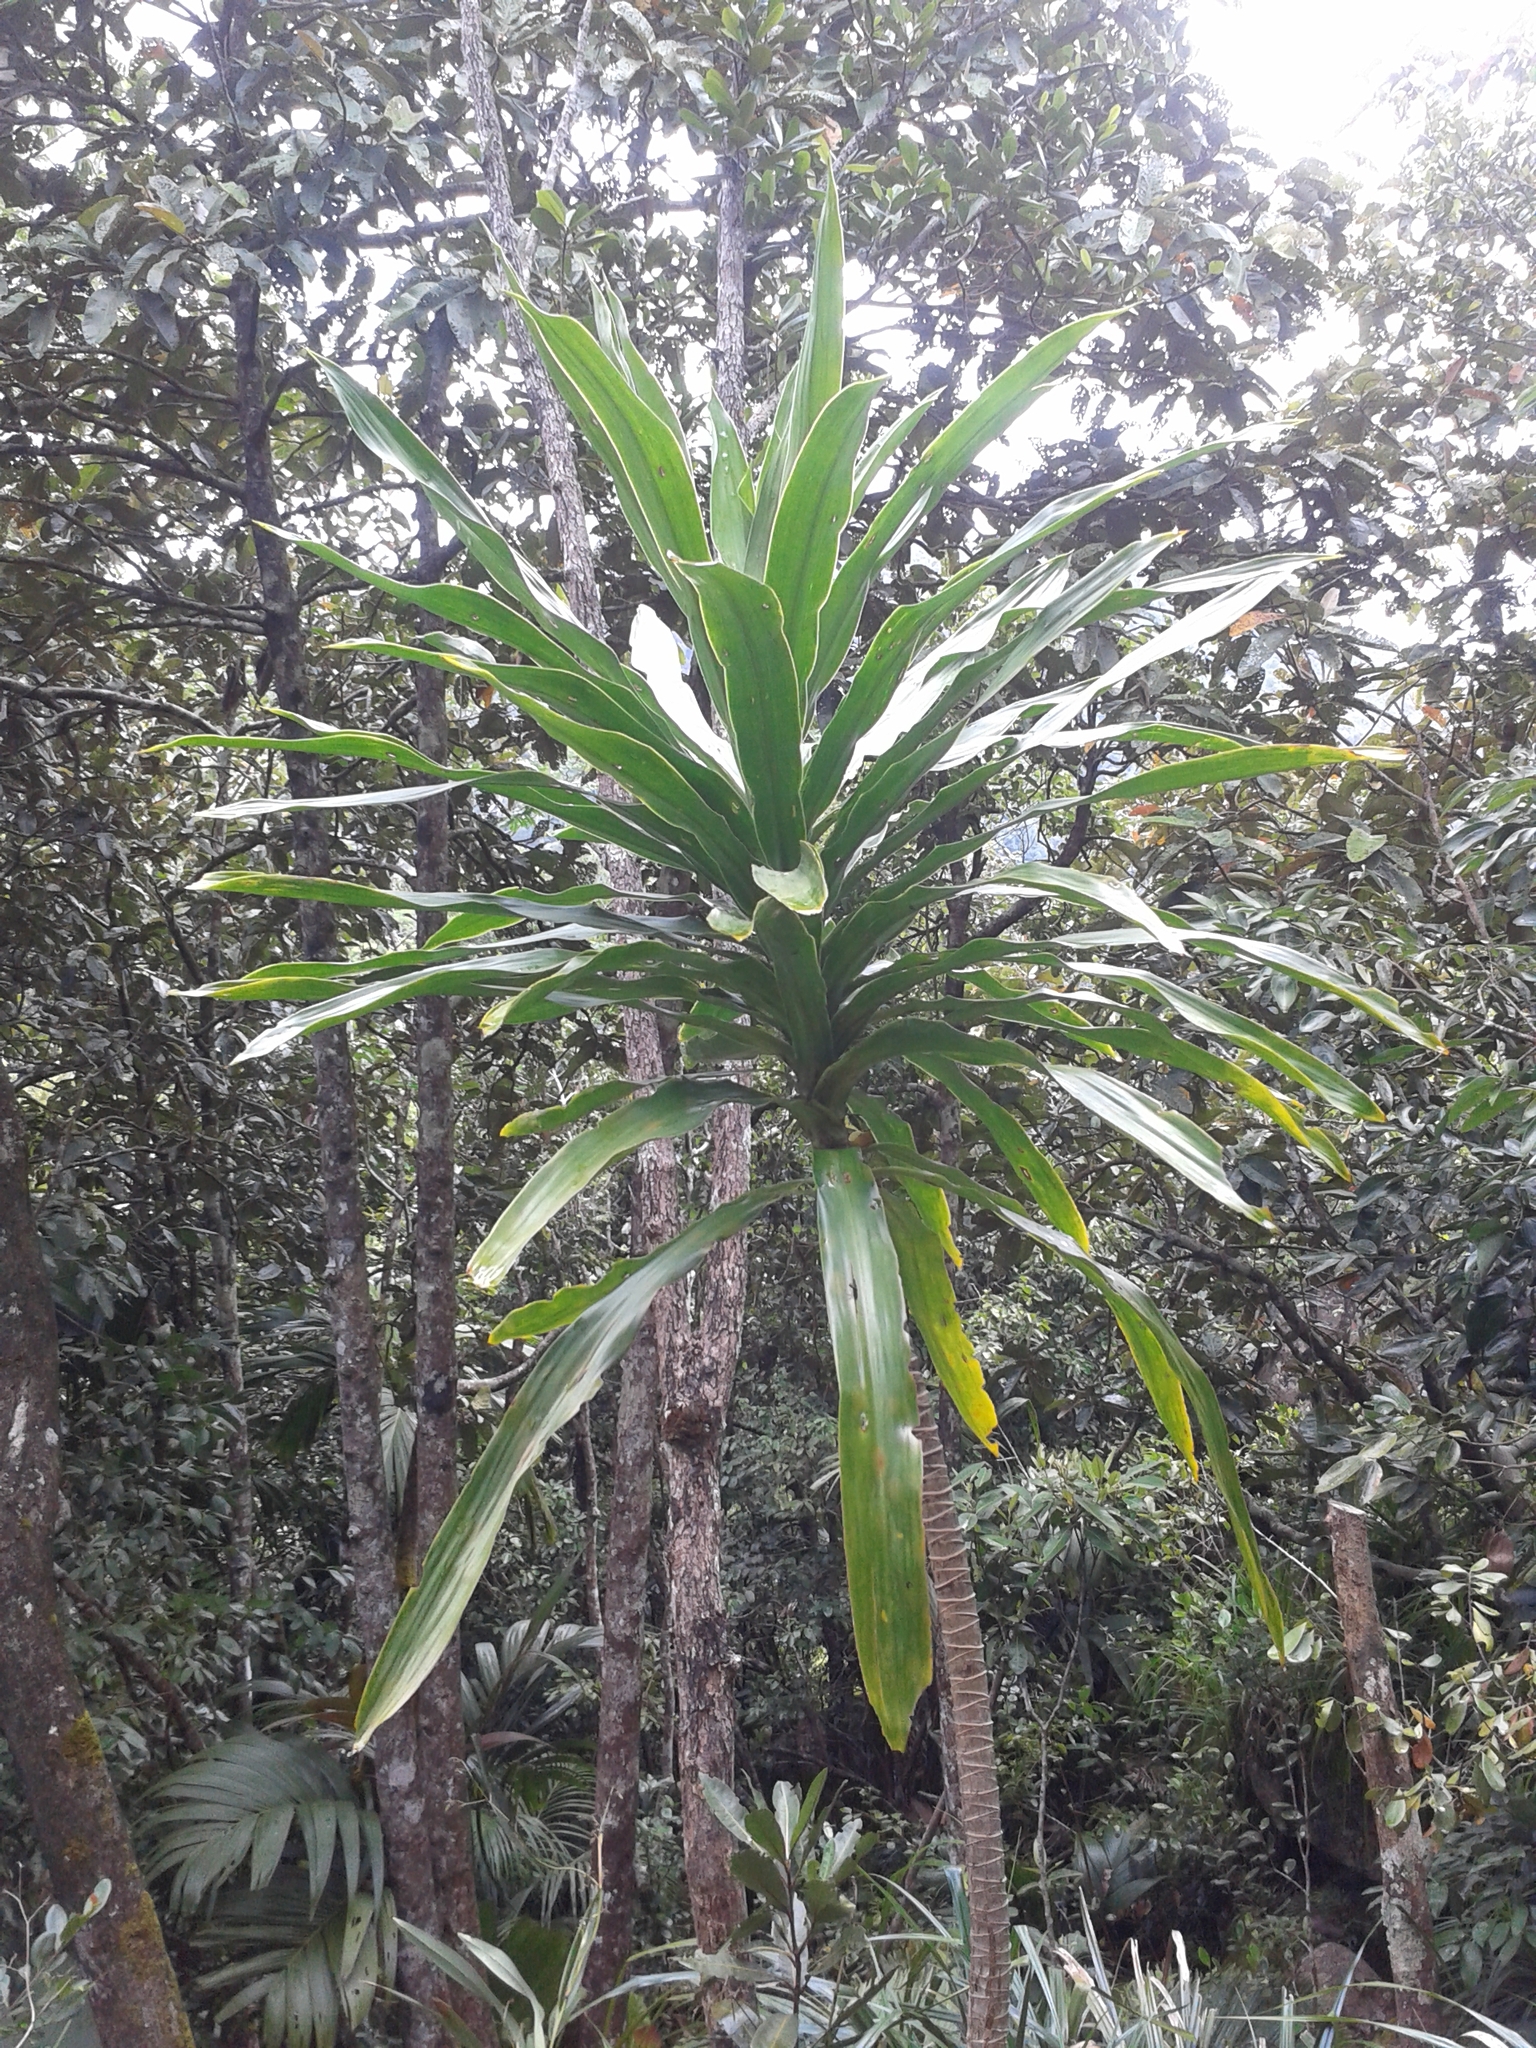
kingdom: Plantae
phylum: Tracheophyta
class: Liliopsida
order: Asparagales
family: Asparagaceae
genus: Dracaena
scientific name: Dracaena floribunda
